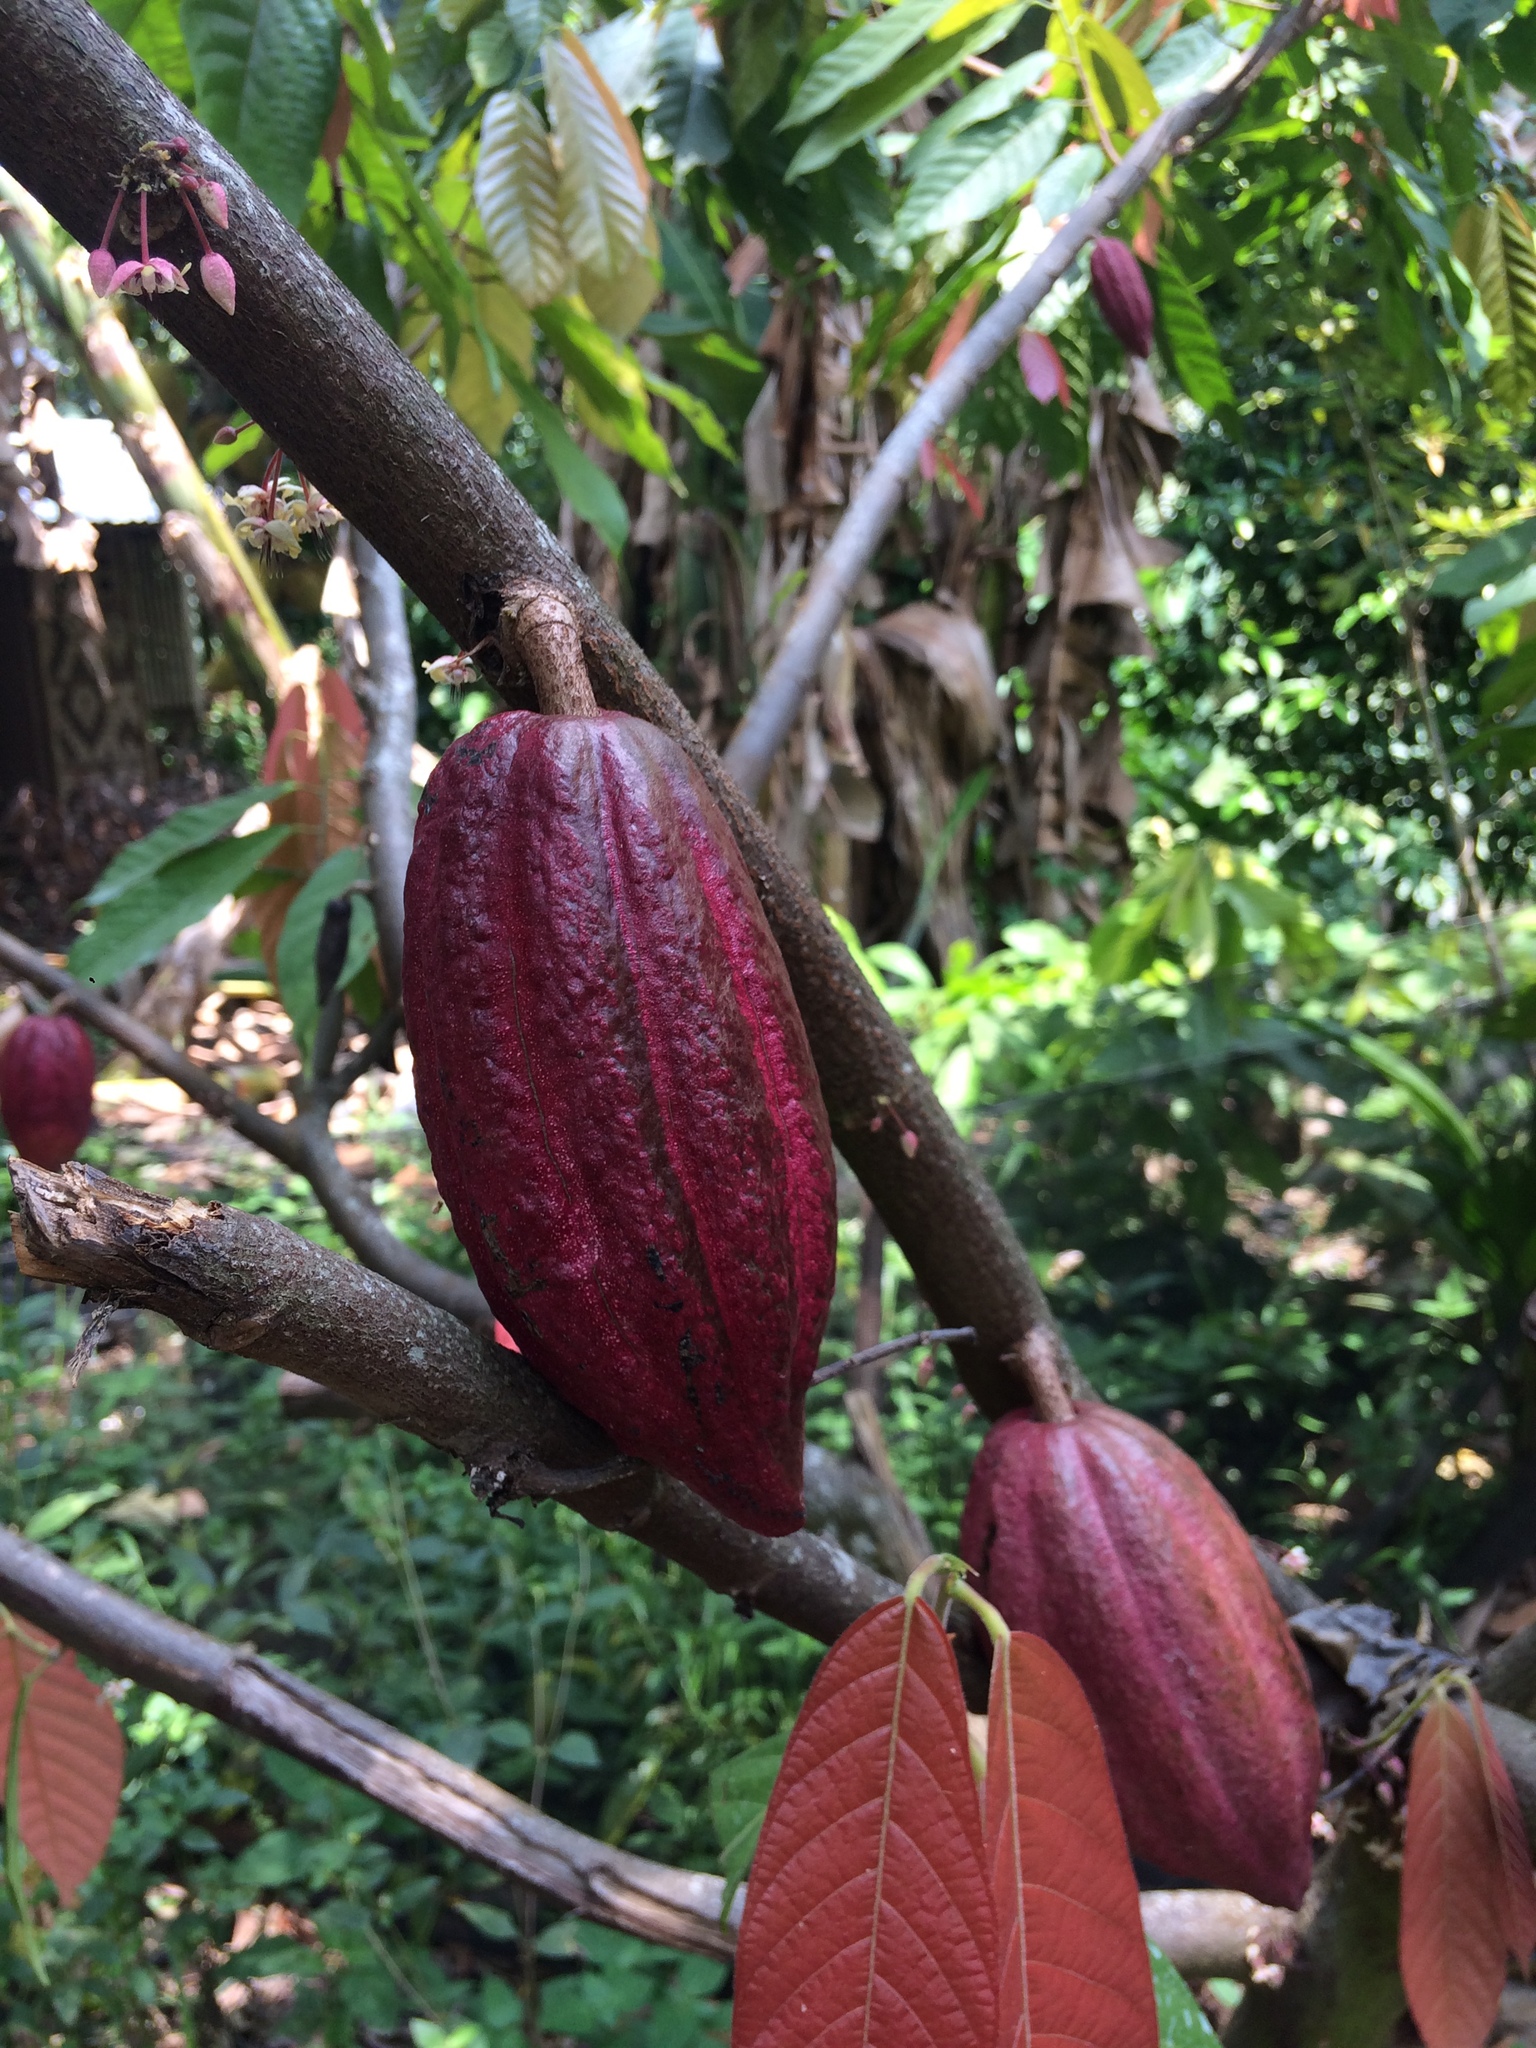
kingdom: Plantae
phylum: Tracheophyta
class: Magnoliopsida
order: Malvales
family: Malvaceae
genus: Theobroma
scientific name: Theobroma cacao
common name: Cocoa
